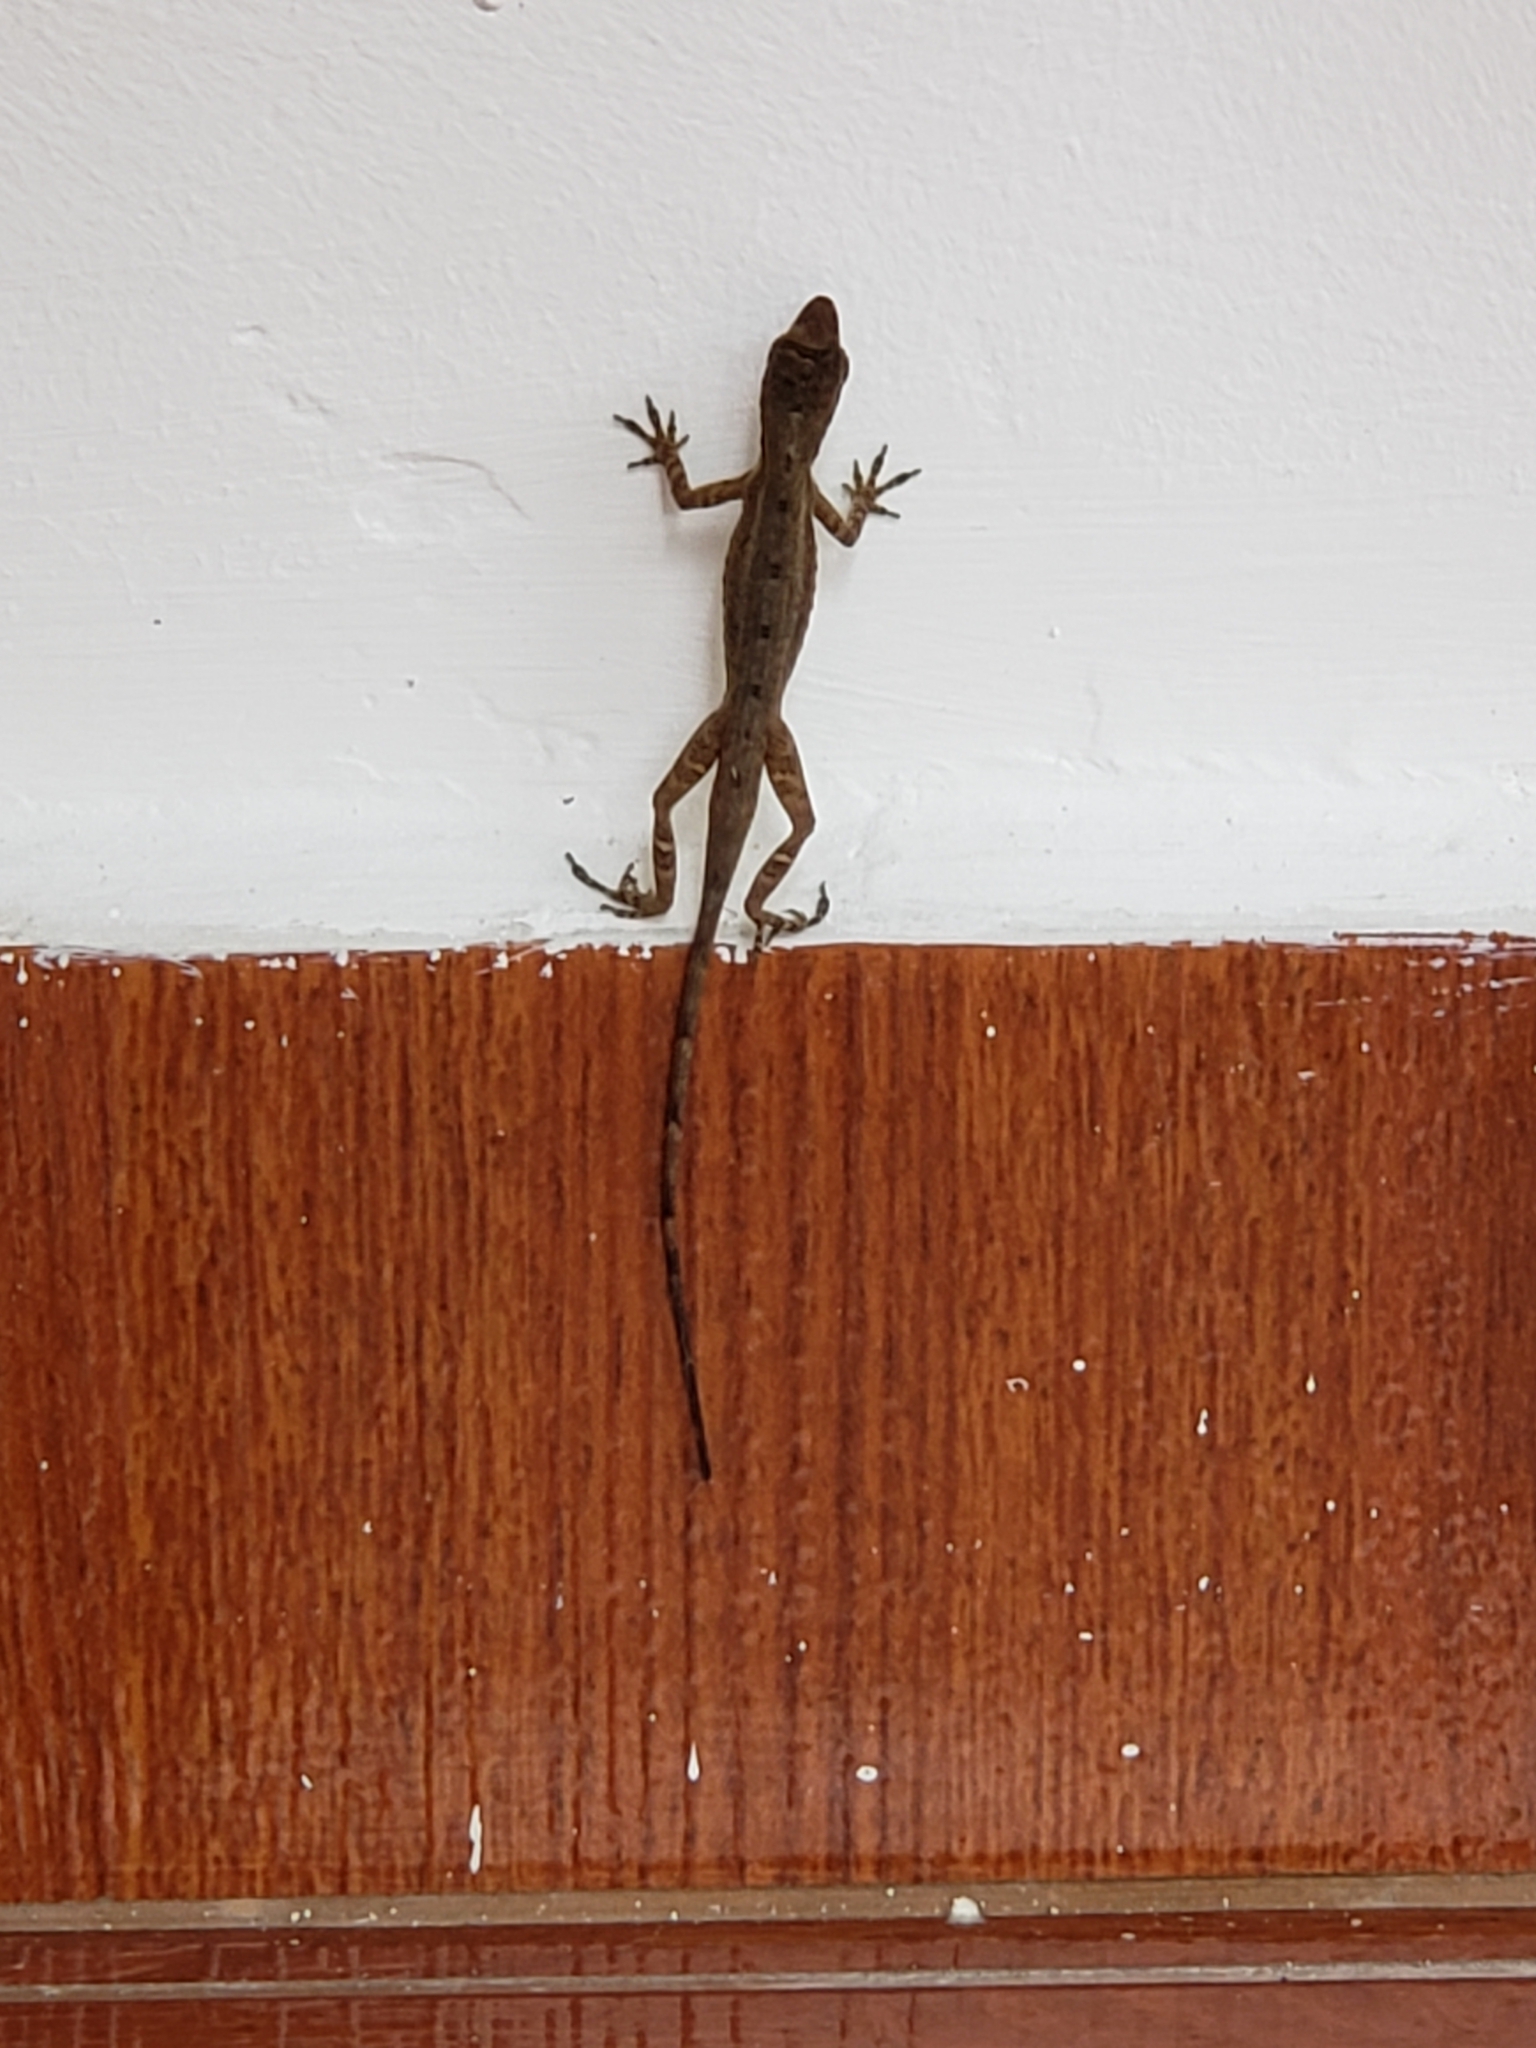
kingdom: Animalia
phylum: Chordata
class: Squamata
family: Dactyloidae
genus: Anolis
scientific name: Anolis antonii
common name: Anton's anole
